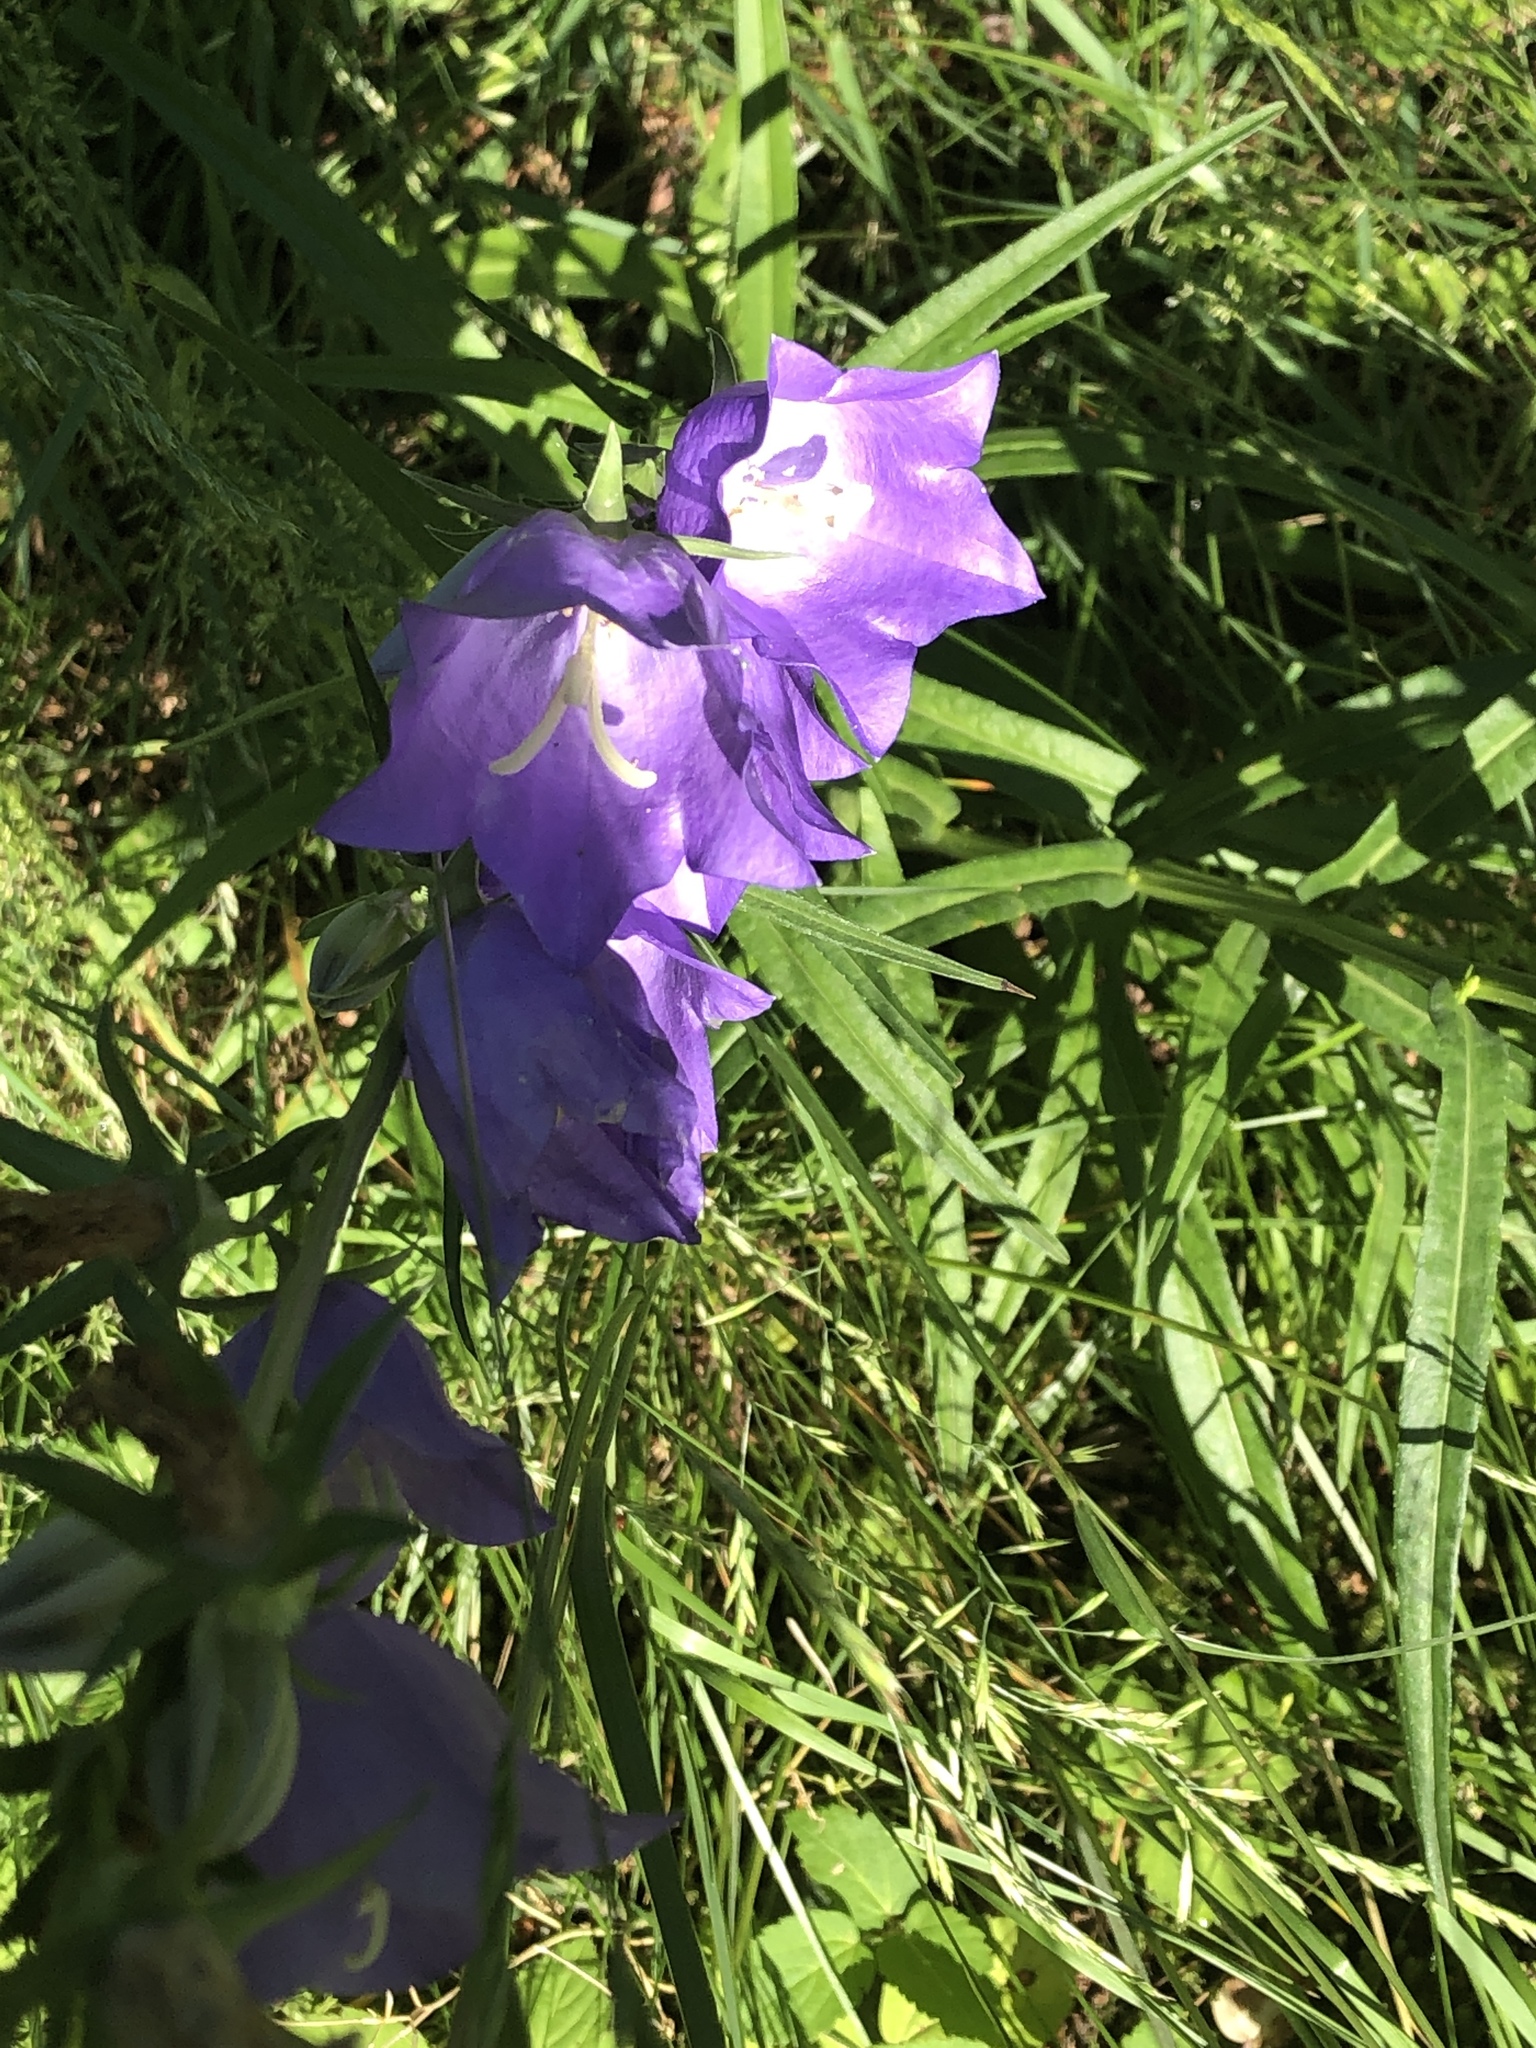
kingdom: Plantae
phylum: Tracheophyta
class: Magnoliopsida
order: Asterales
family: Campanulaceae
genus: Campanula
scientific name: Campanula persicifolia
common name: Peach-leaved bellflower
